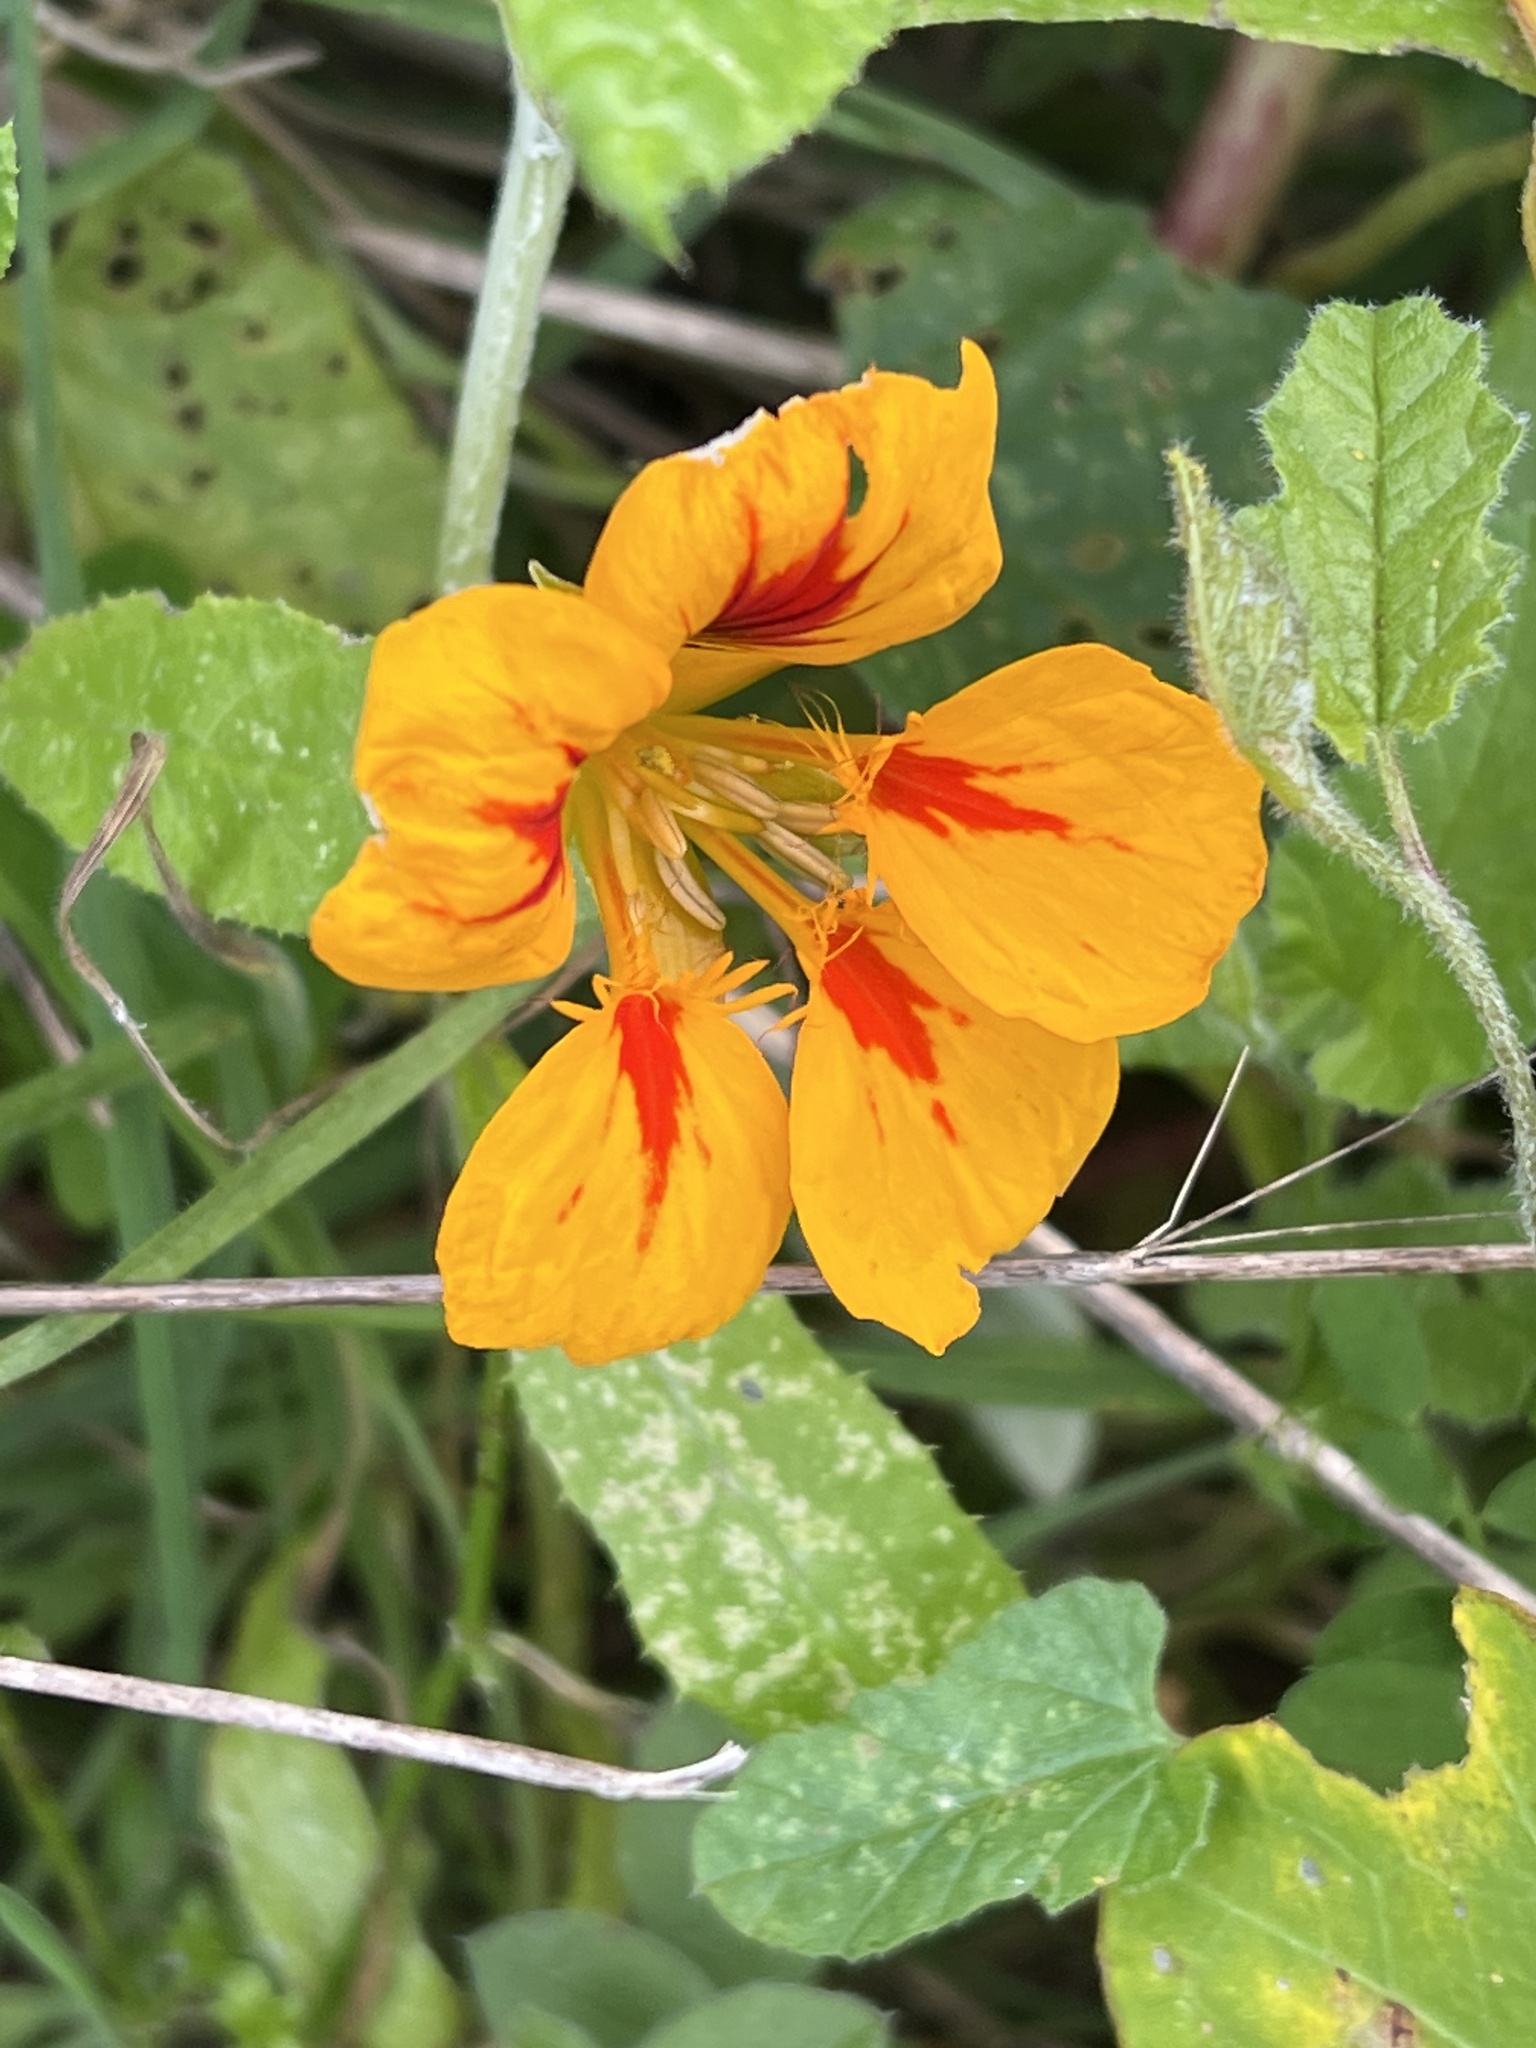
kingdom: Plantae
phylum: Tracheophyta
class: Magnoliopsida
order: Brassicales
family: Tropaeolaceae
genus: Tropaeolum
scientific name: Tropaeolum majus
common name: Nasturtium
